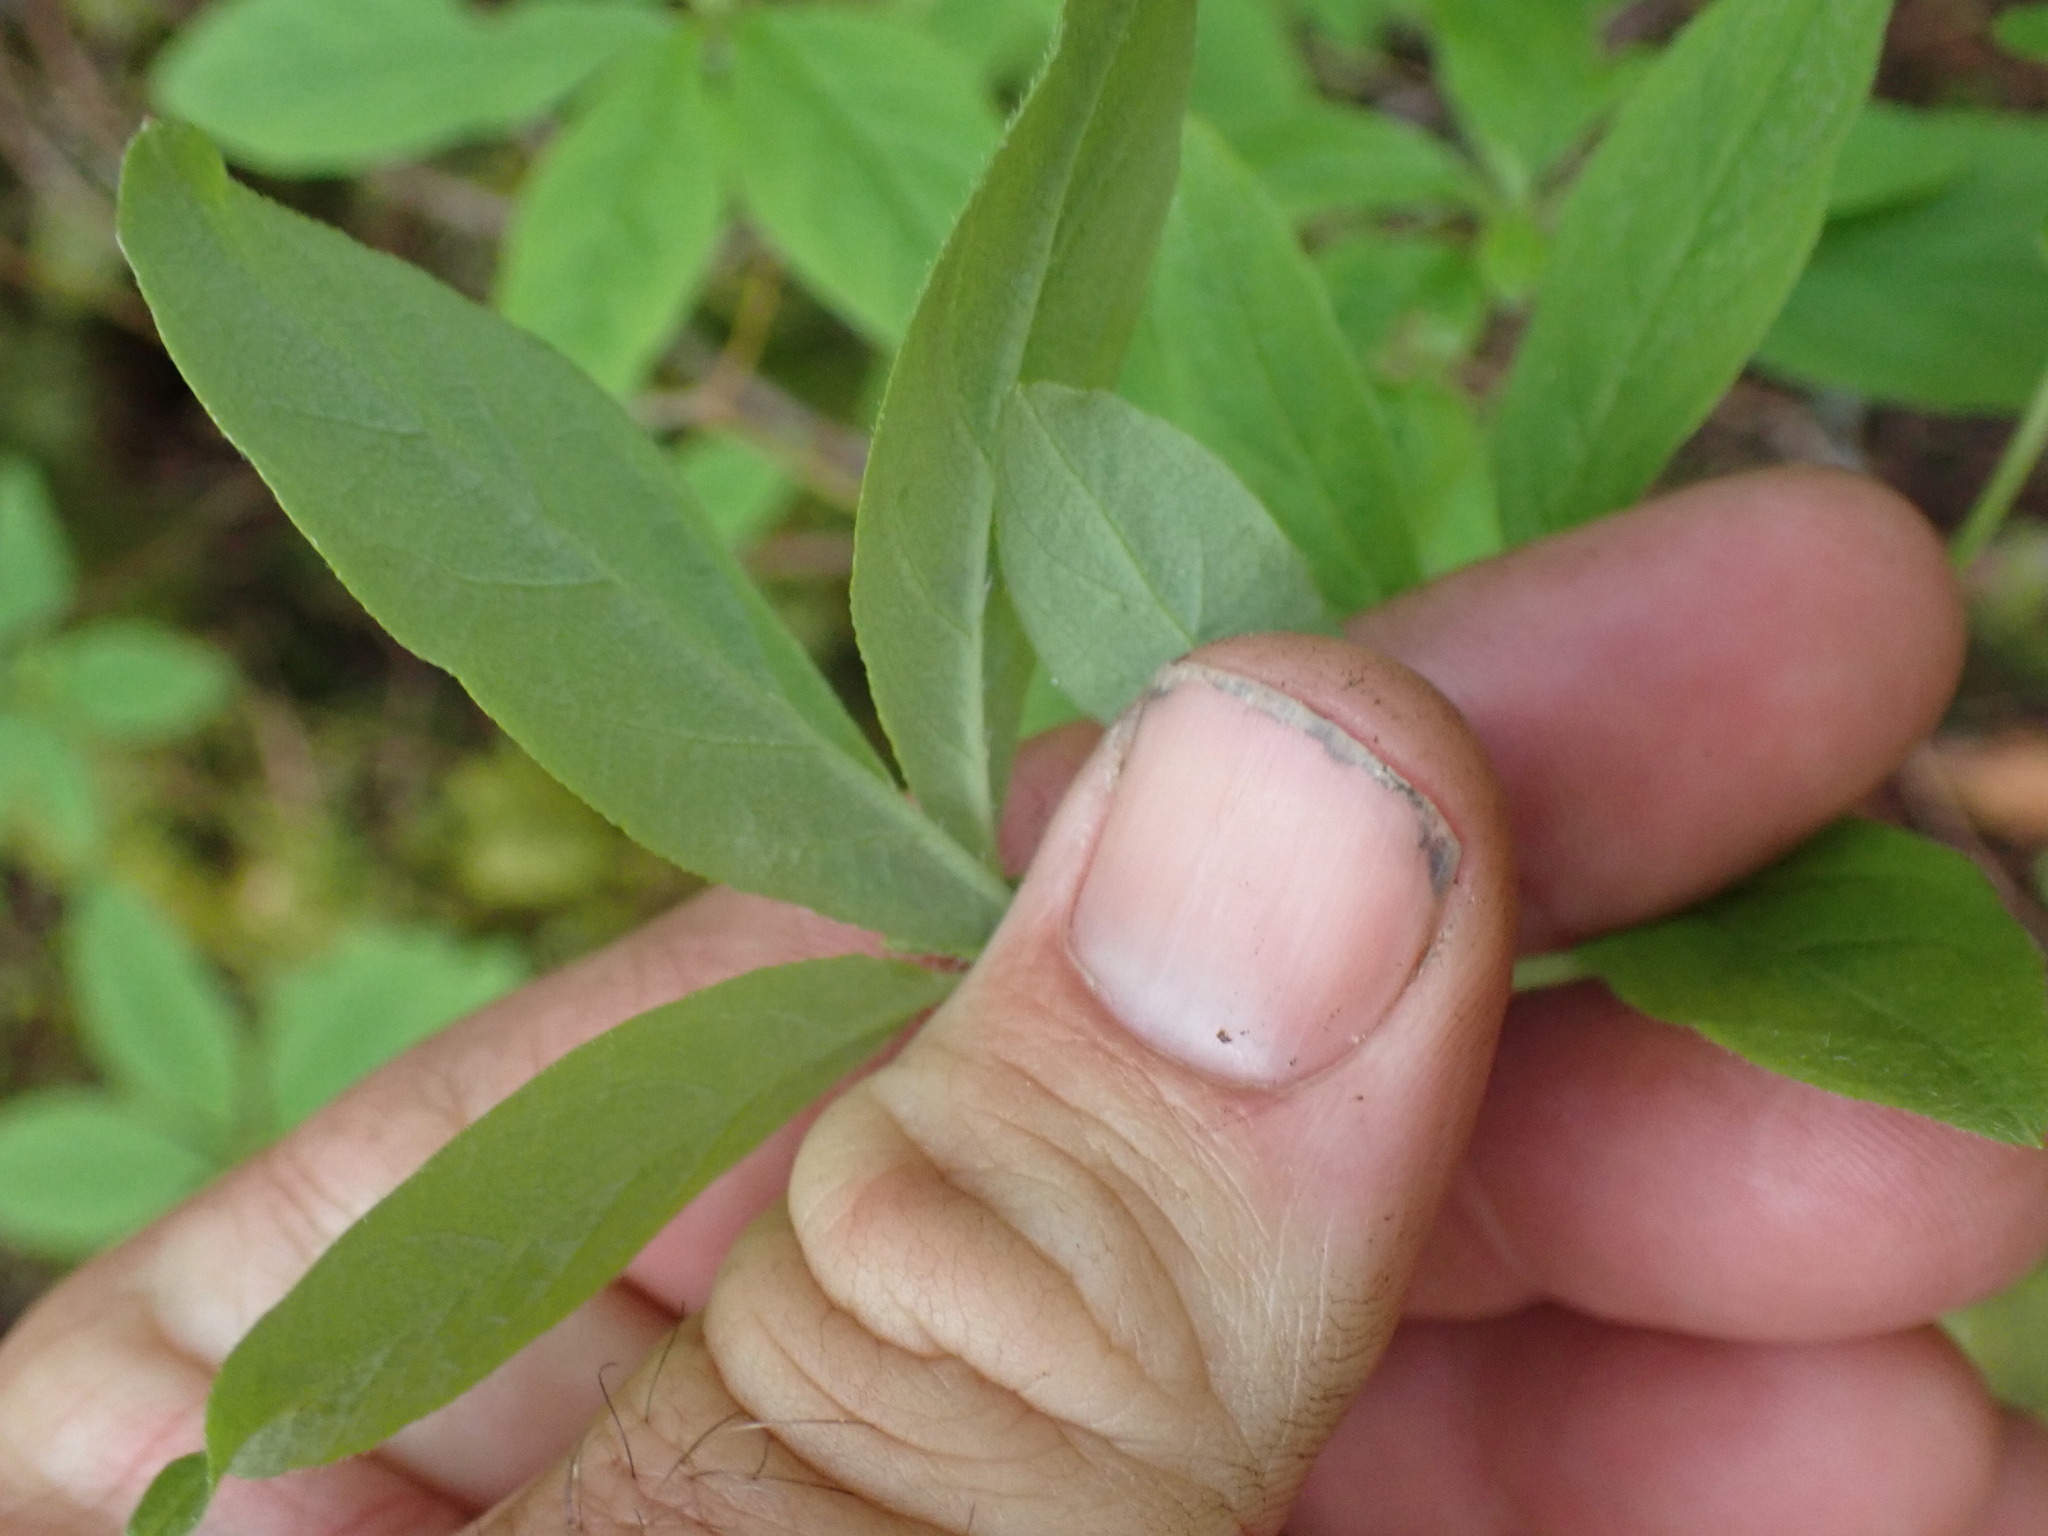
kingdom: Plantae
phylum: Tracheophyta
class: Magnoliopsida
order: Ericales
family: Ericaceae
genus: Rhododendron
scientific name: Rhododendron menziesii
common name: Pacific menziesia
